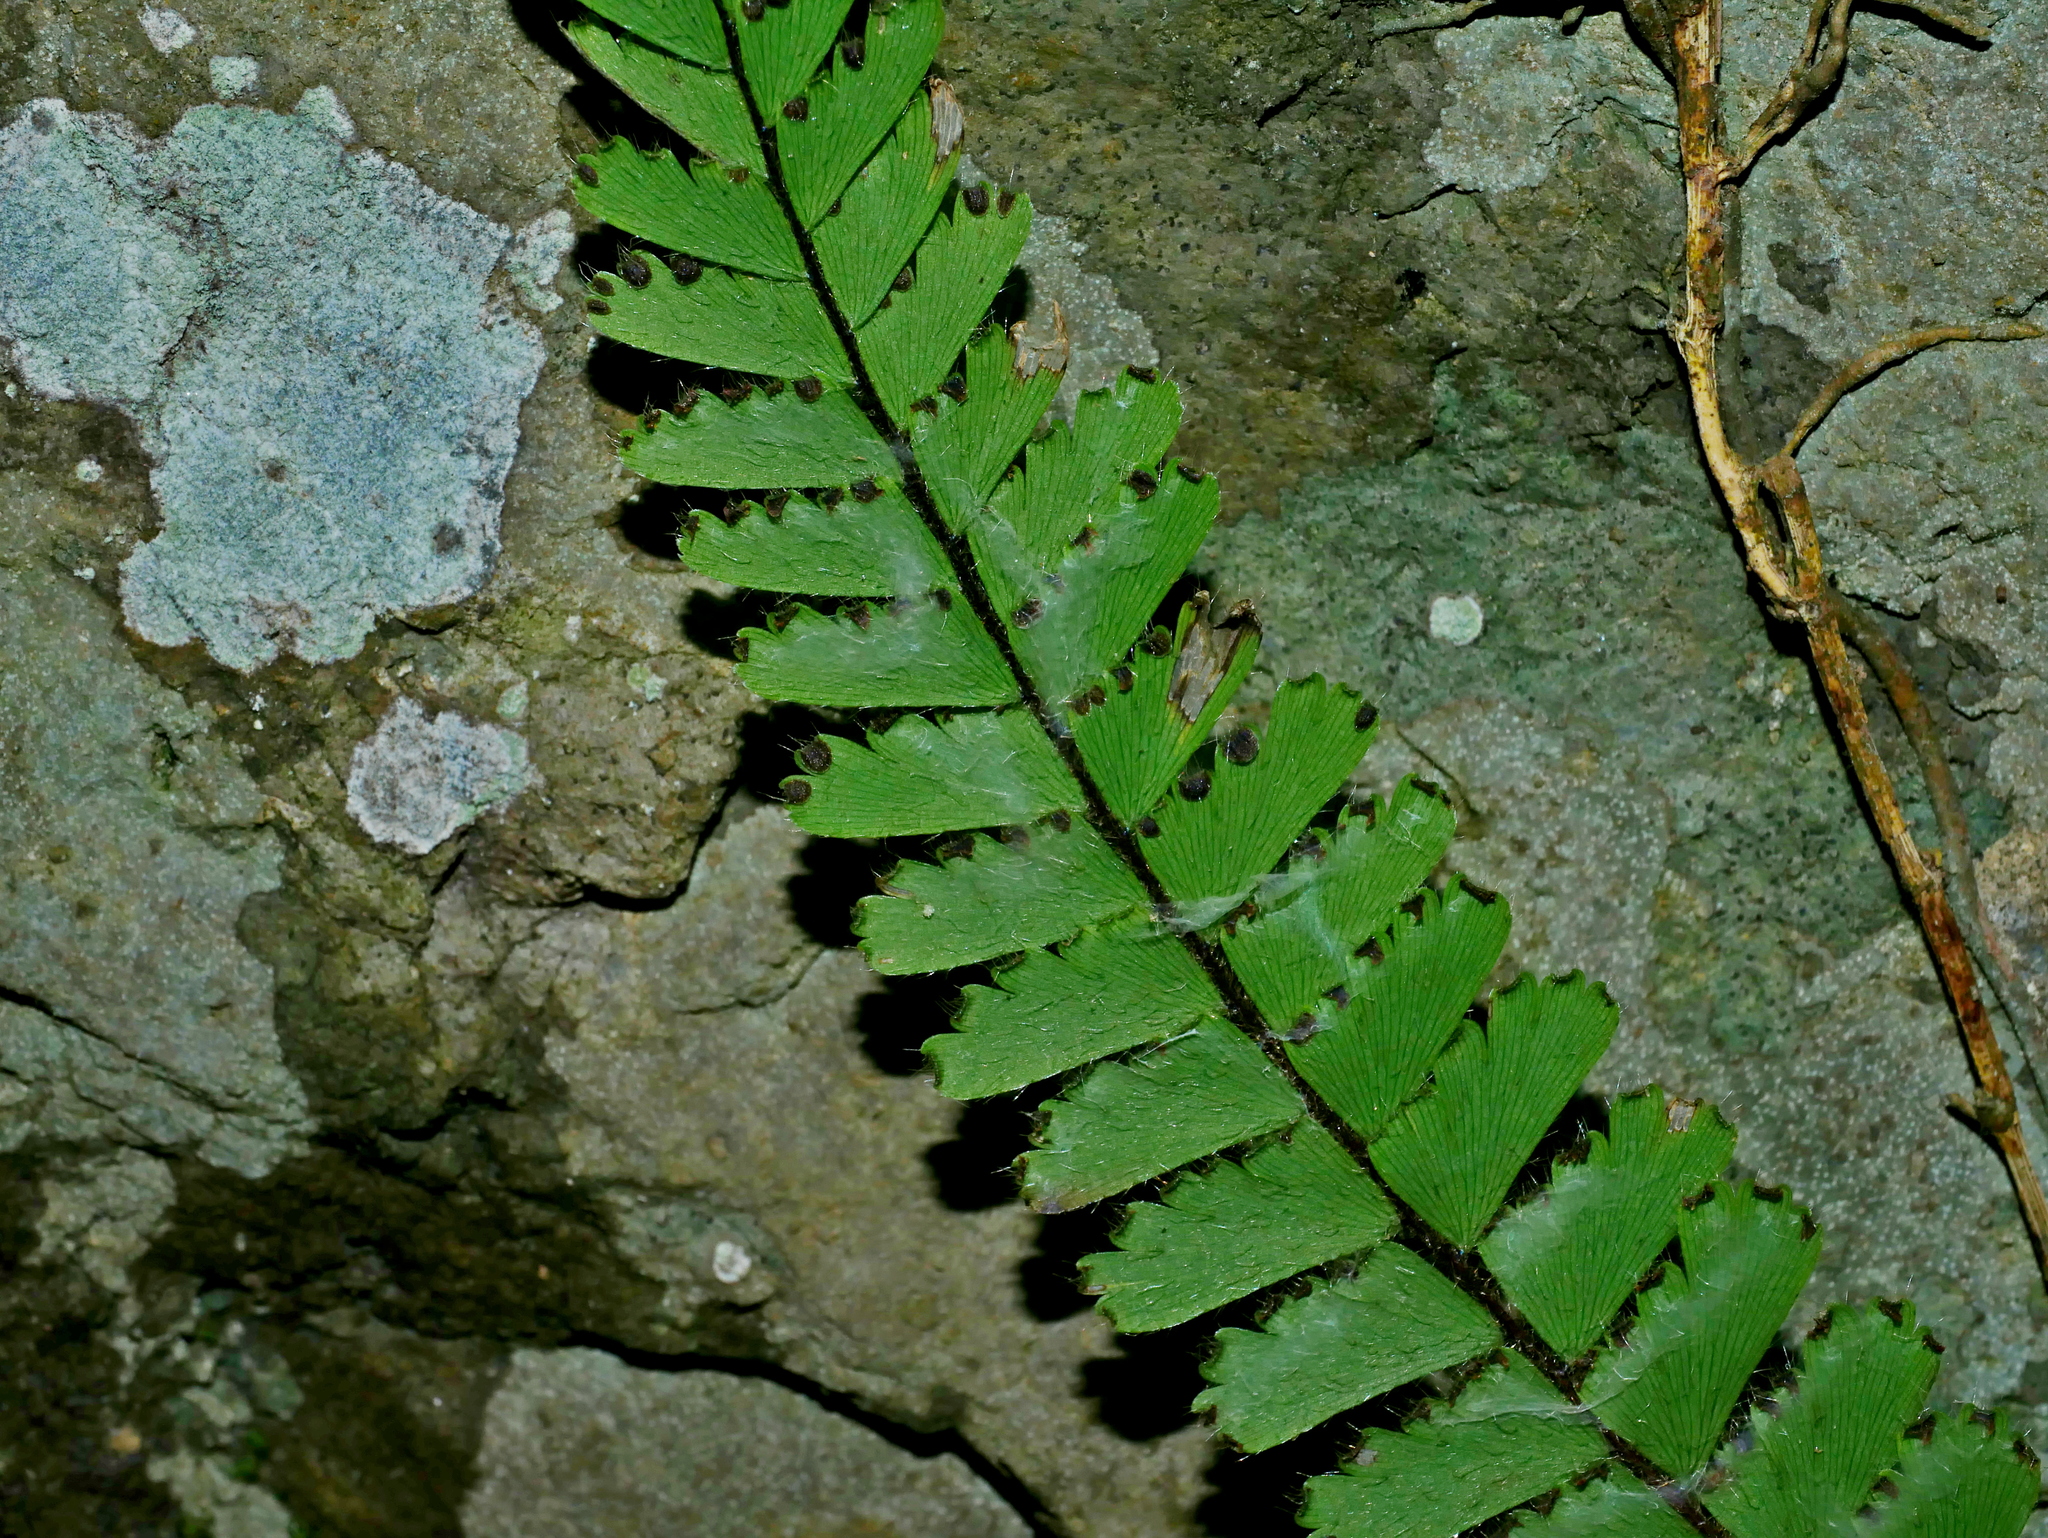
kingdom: Plantae
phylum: Tracheophyta
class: Polypodiopsida
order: Polypodiales
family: Pteridaceae
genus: Adiantum
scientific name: Adiantum ciliatum
